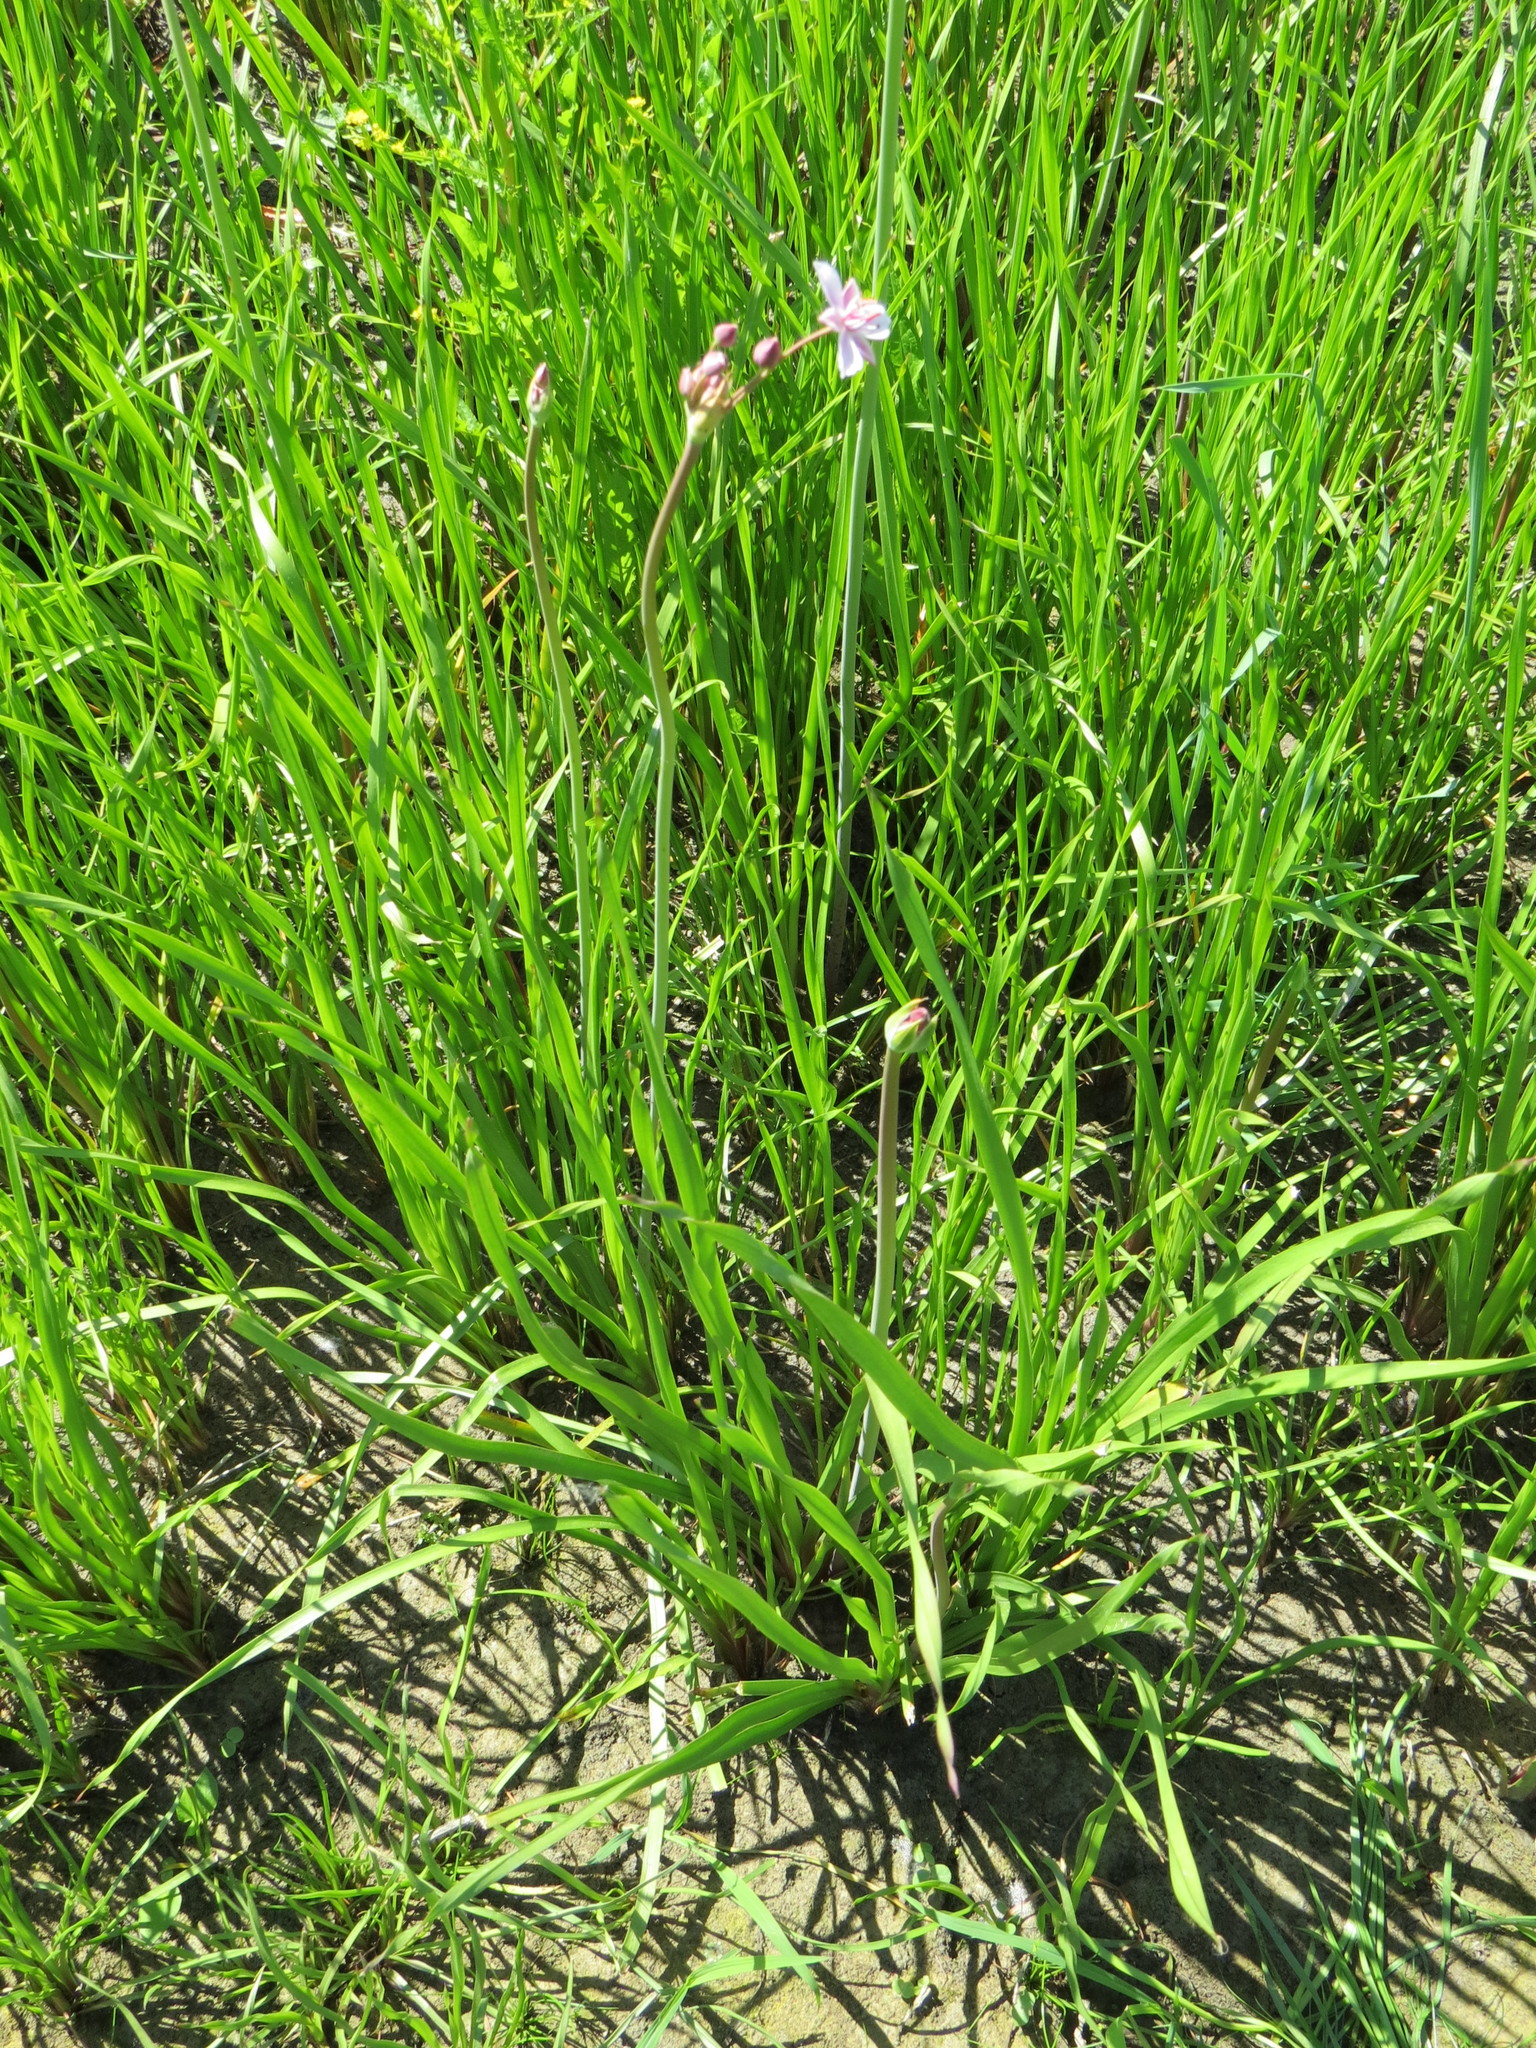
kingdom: Plantae
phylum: Tracheophyta
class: Liliopsida
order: Alismatales
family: Butomaceae
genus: Butomus
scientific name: Butomus umbellatus
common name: Flowering-rush
